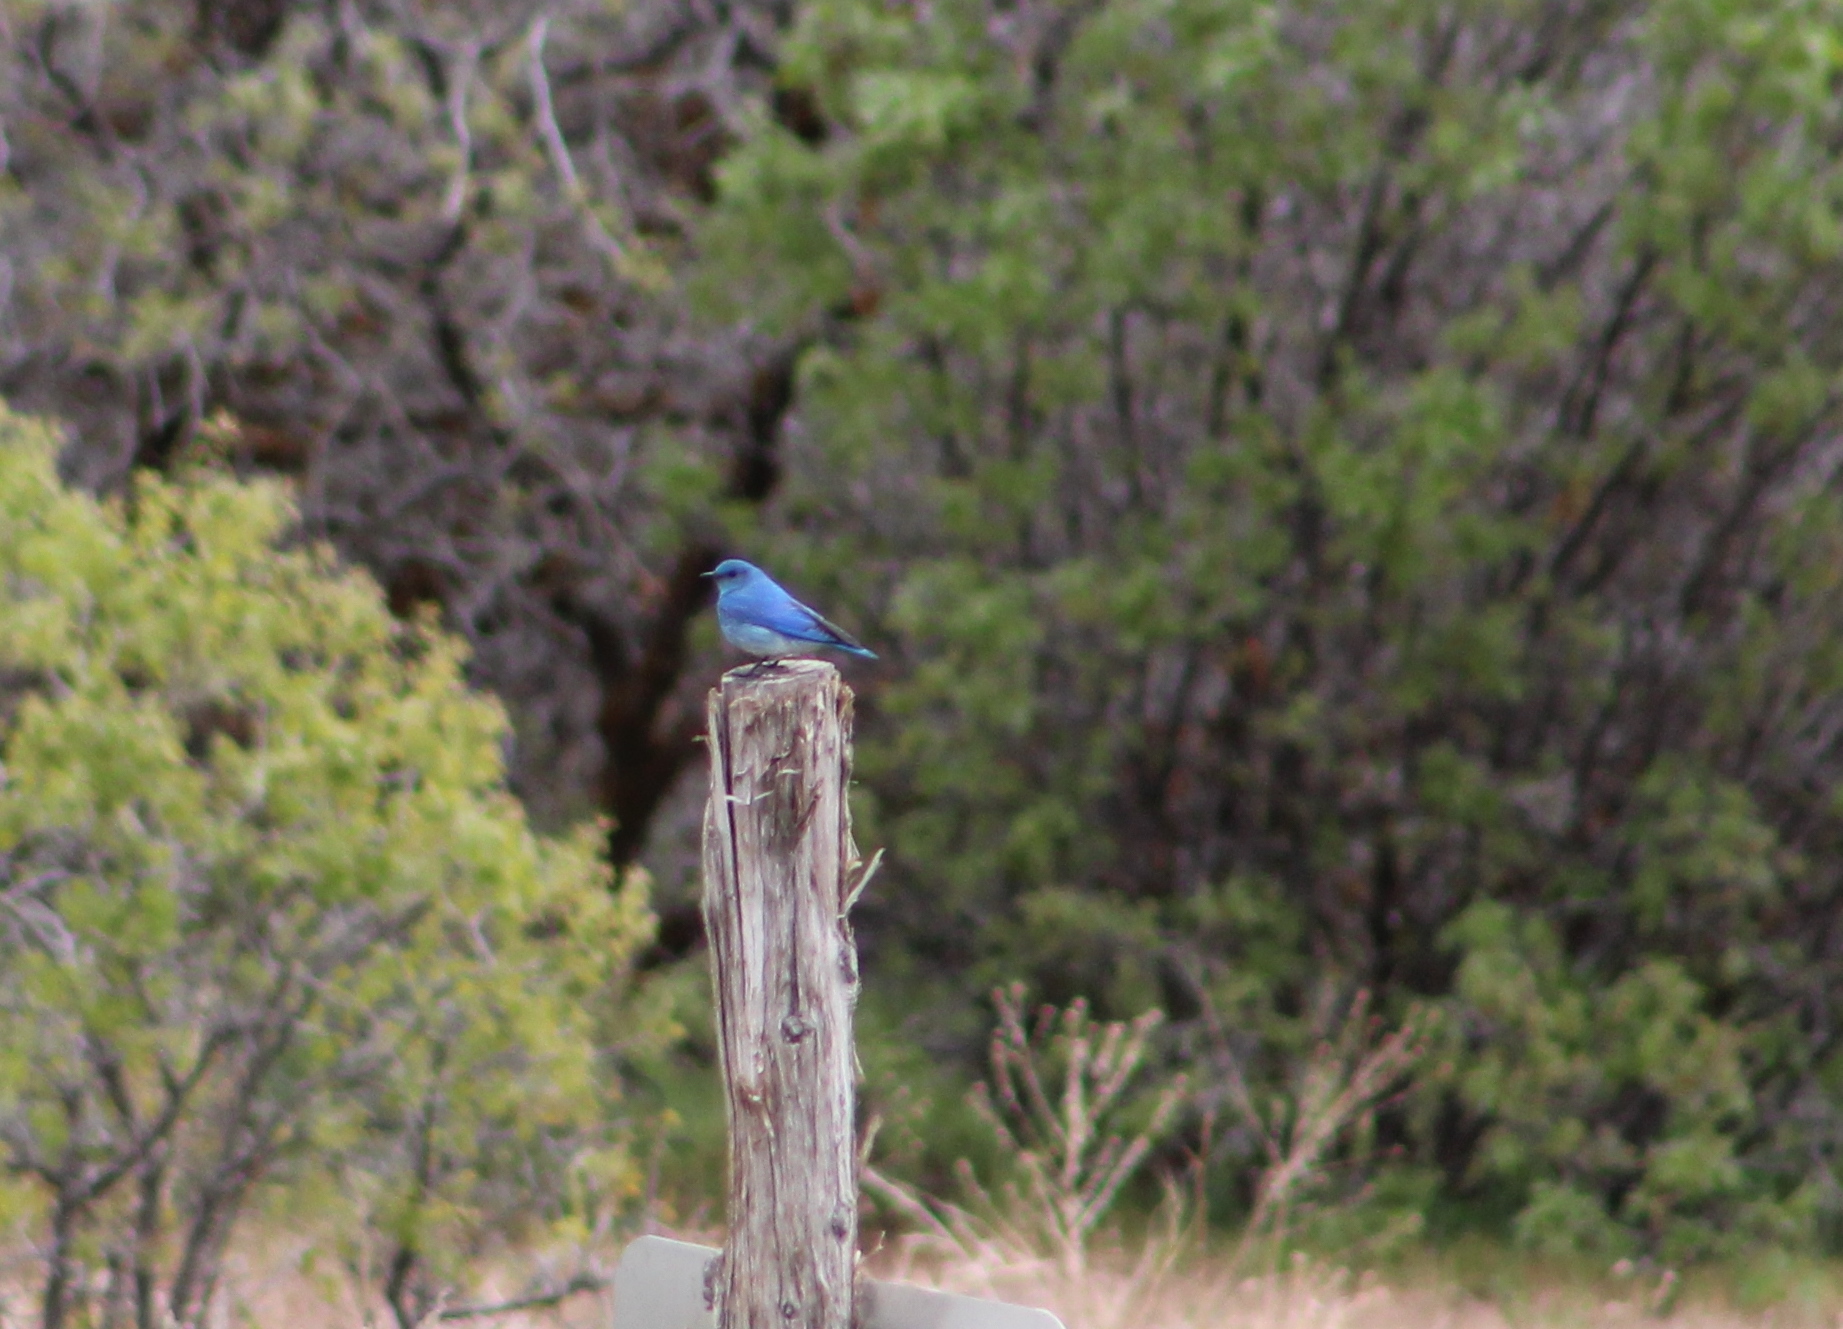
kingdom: Animalia
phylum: Chordata
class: Aves
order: Passeriformes
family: Turdidae
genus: Sialia
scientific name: Sialia currucoides
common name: Mountain bluebird
